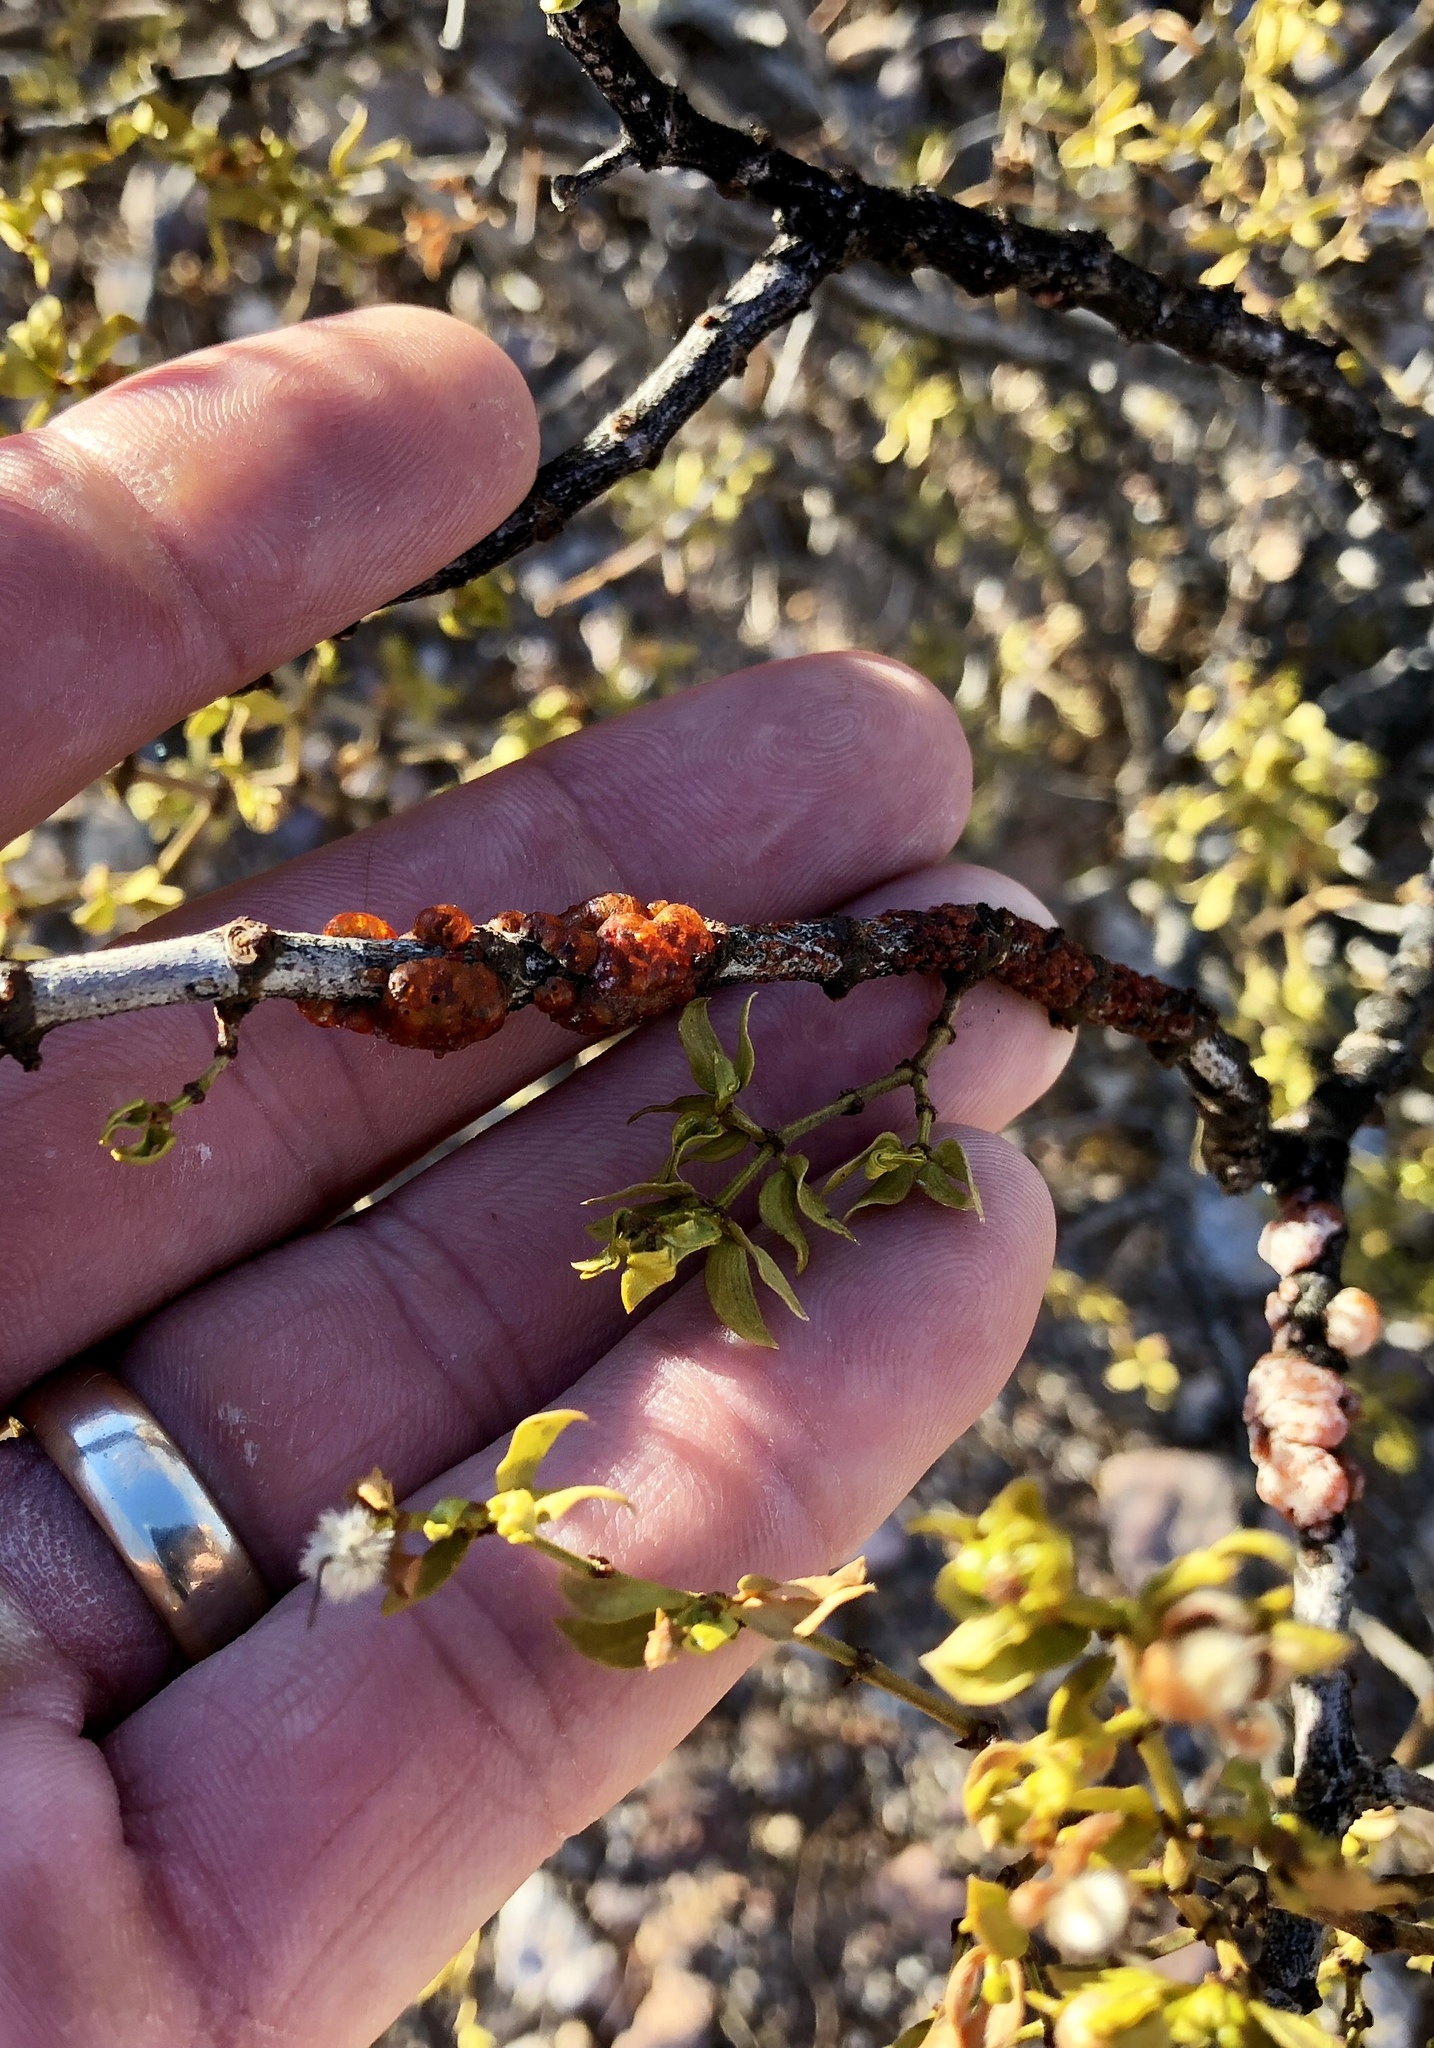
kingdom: Animalia
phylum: Arthropoda
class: Insecta
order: Hemiptera
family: Kerriidae
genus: Tachardiella
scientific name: Tachardiella larreae
